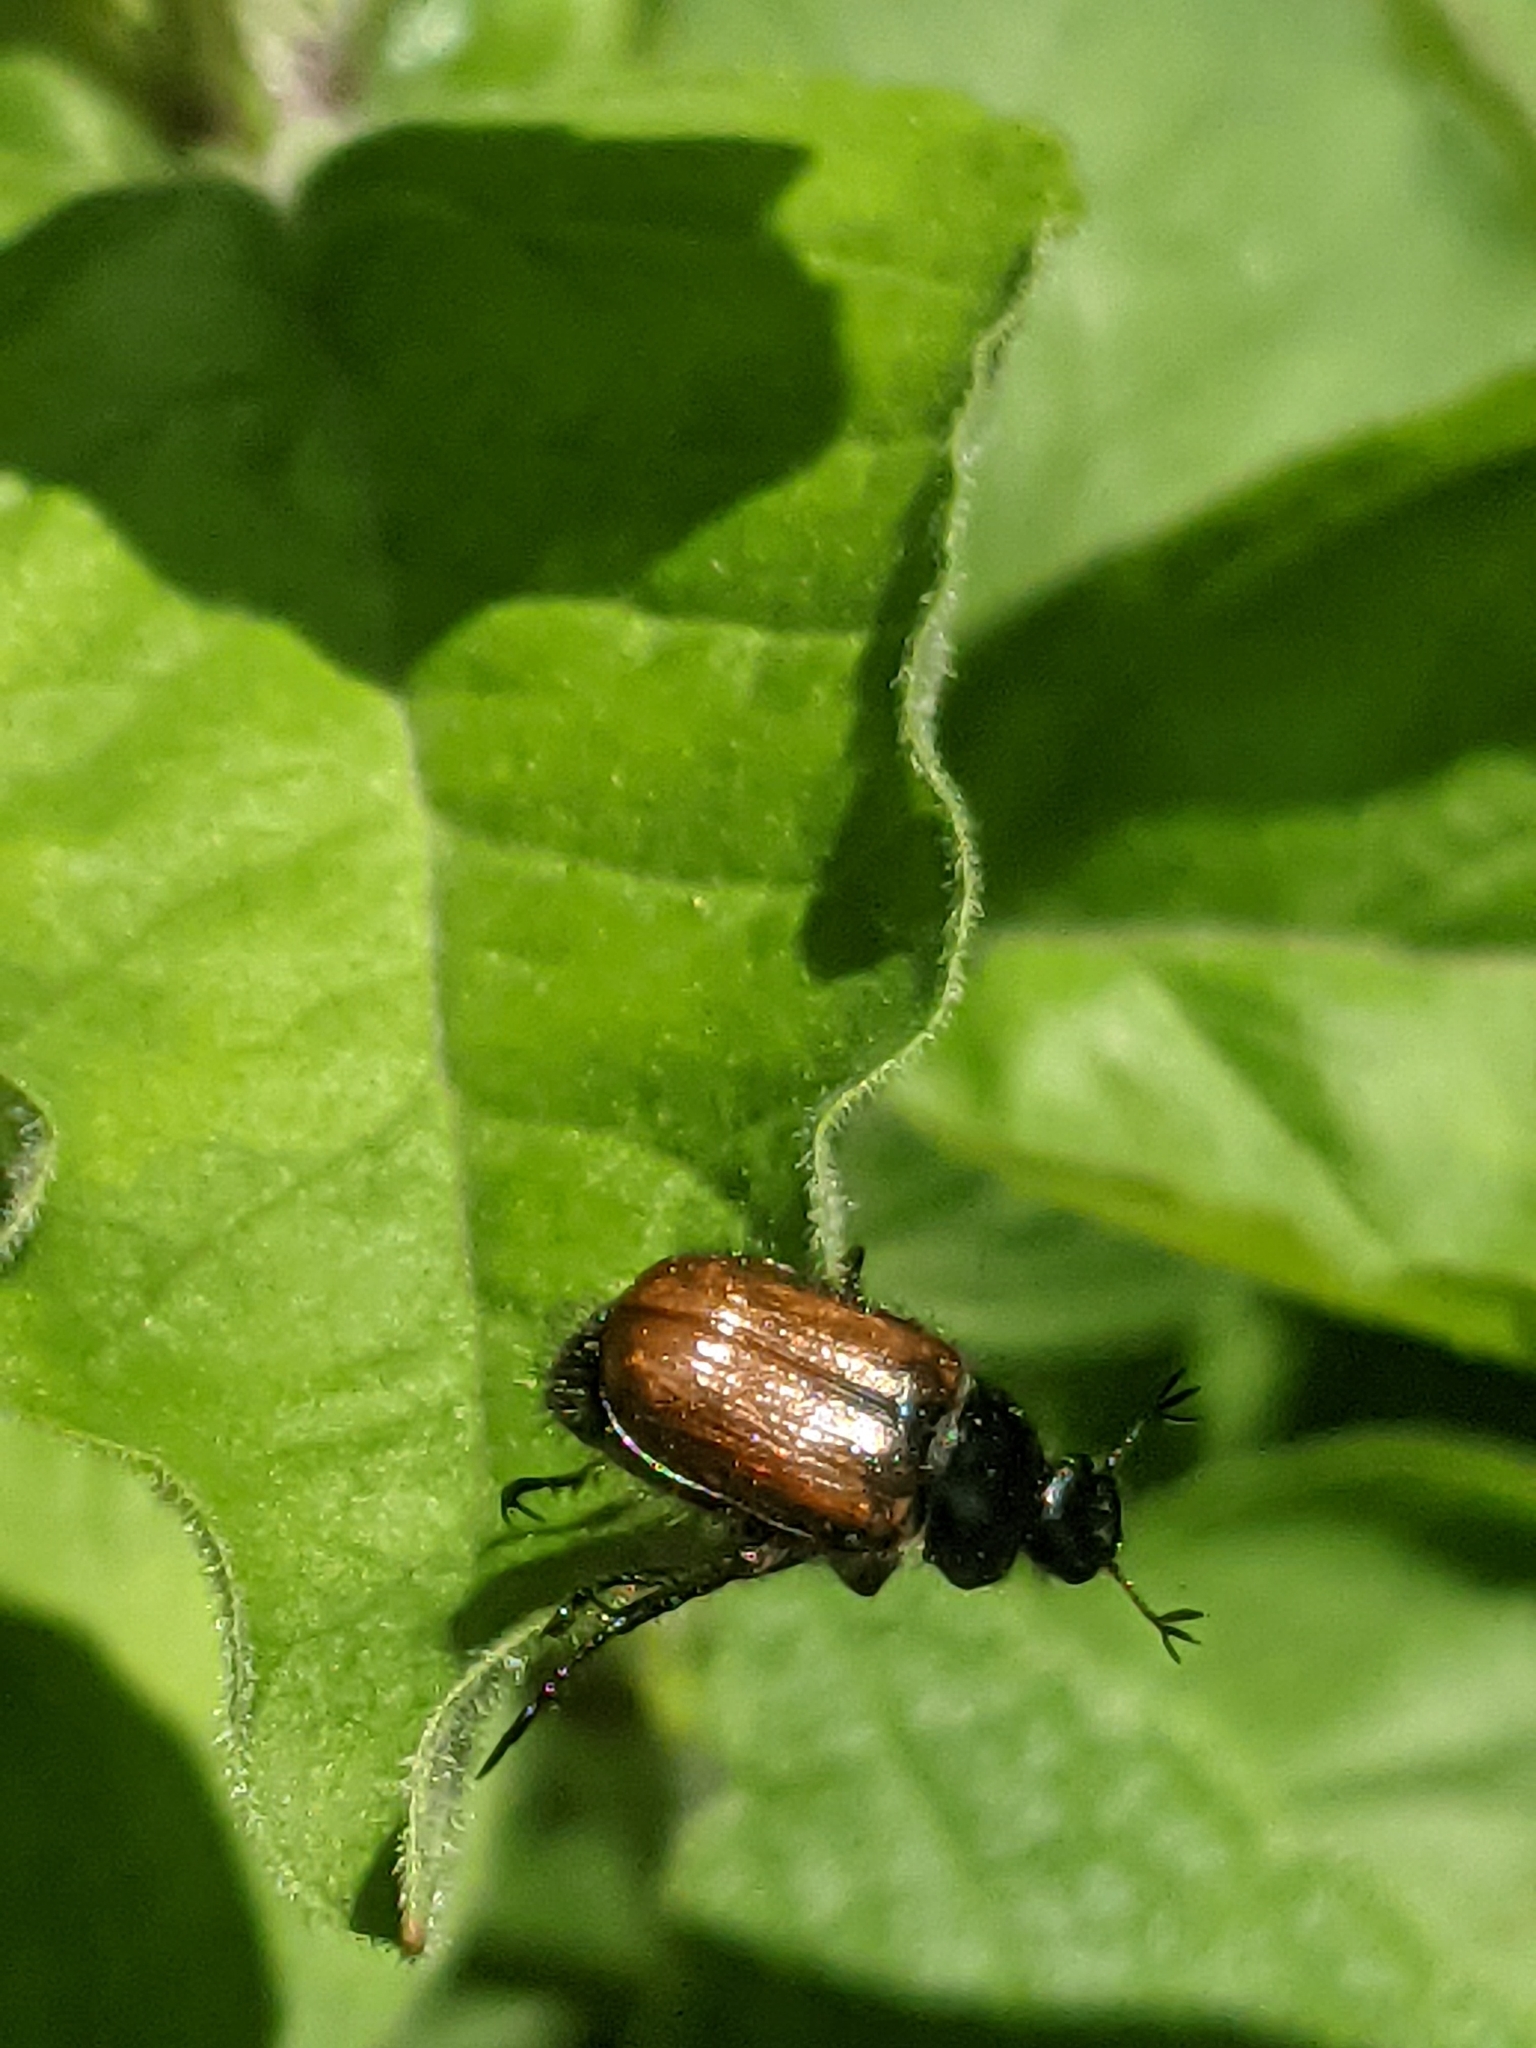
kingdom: Animalia
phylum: Arthropoda
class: Insecta
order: Coleoptera
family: Scarabaeidae
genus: Phyllopertha
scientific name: Phyllopertha horticola
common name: Garden chafer
